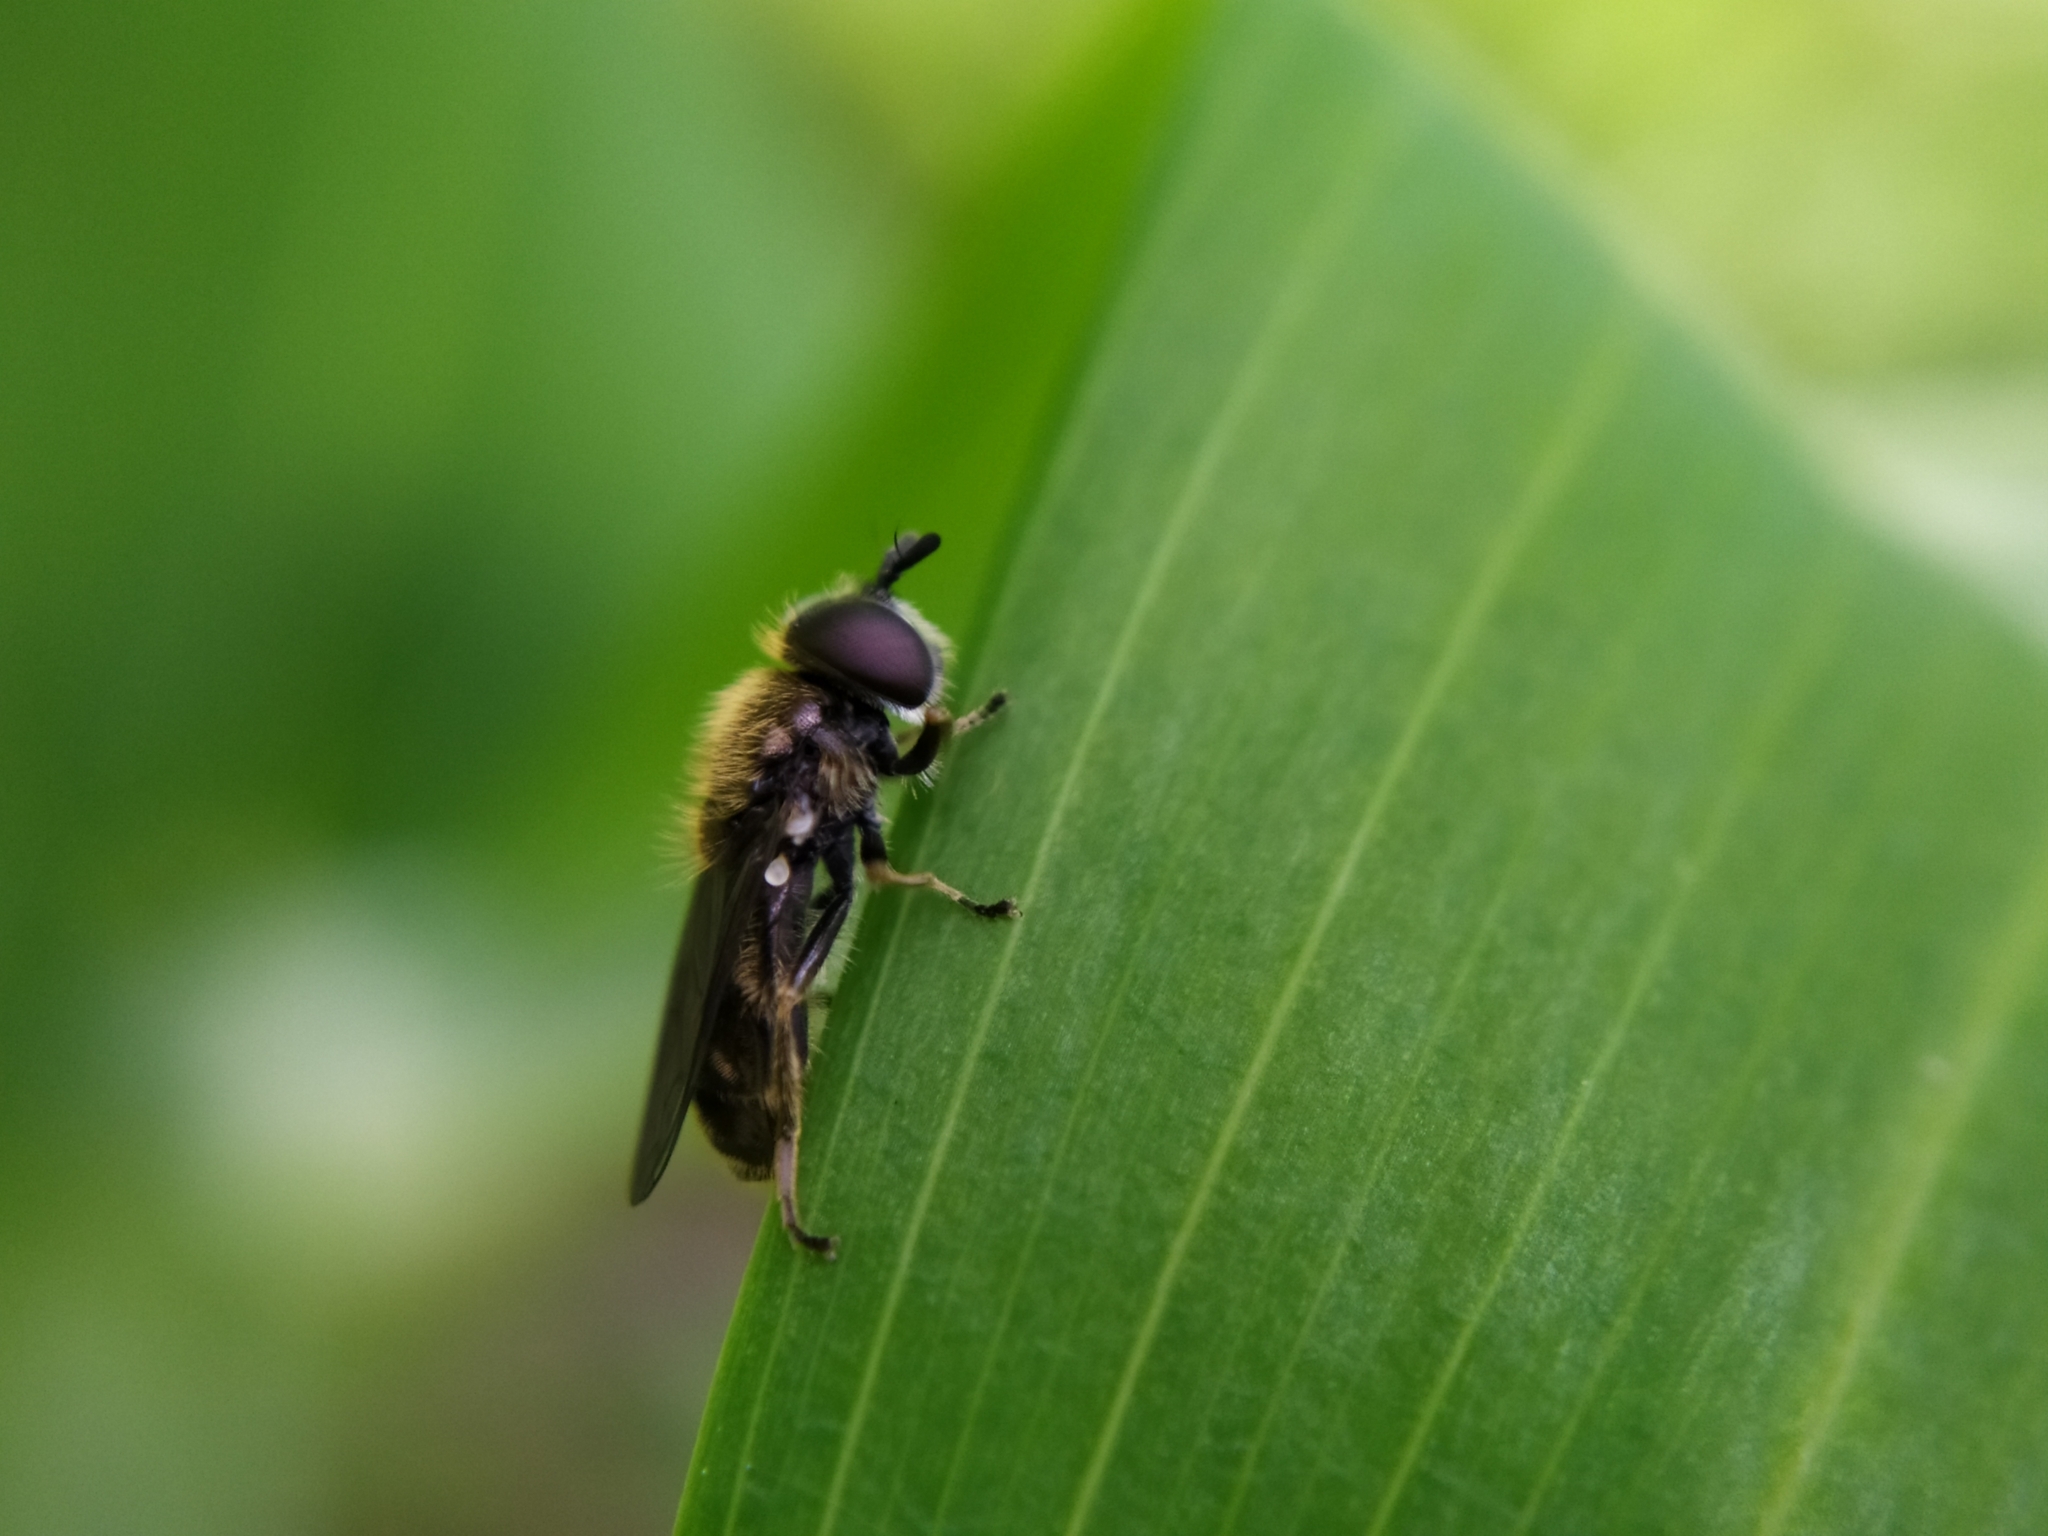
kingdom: Animalia
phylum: Arthropoda
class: Insecta
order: Diptera
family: Syrphidae
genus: Pipizella
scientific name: Pipizella viduata
